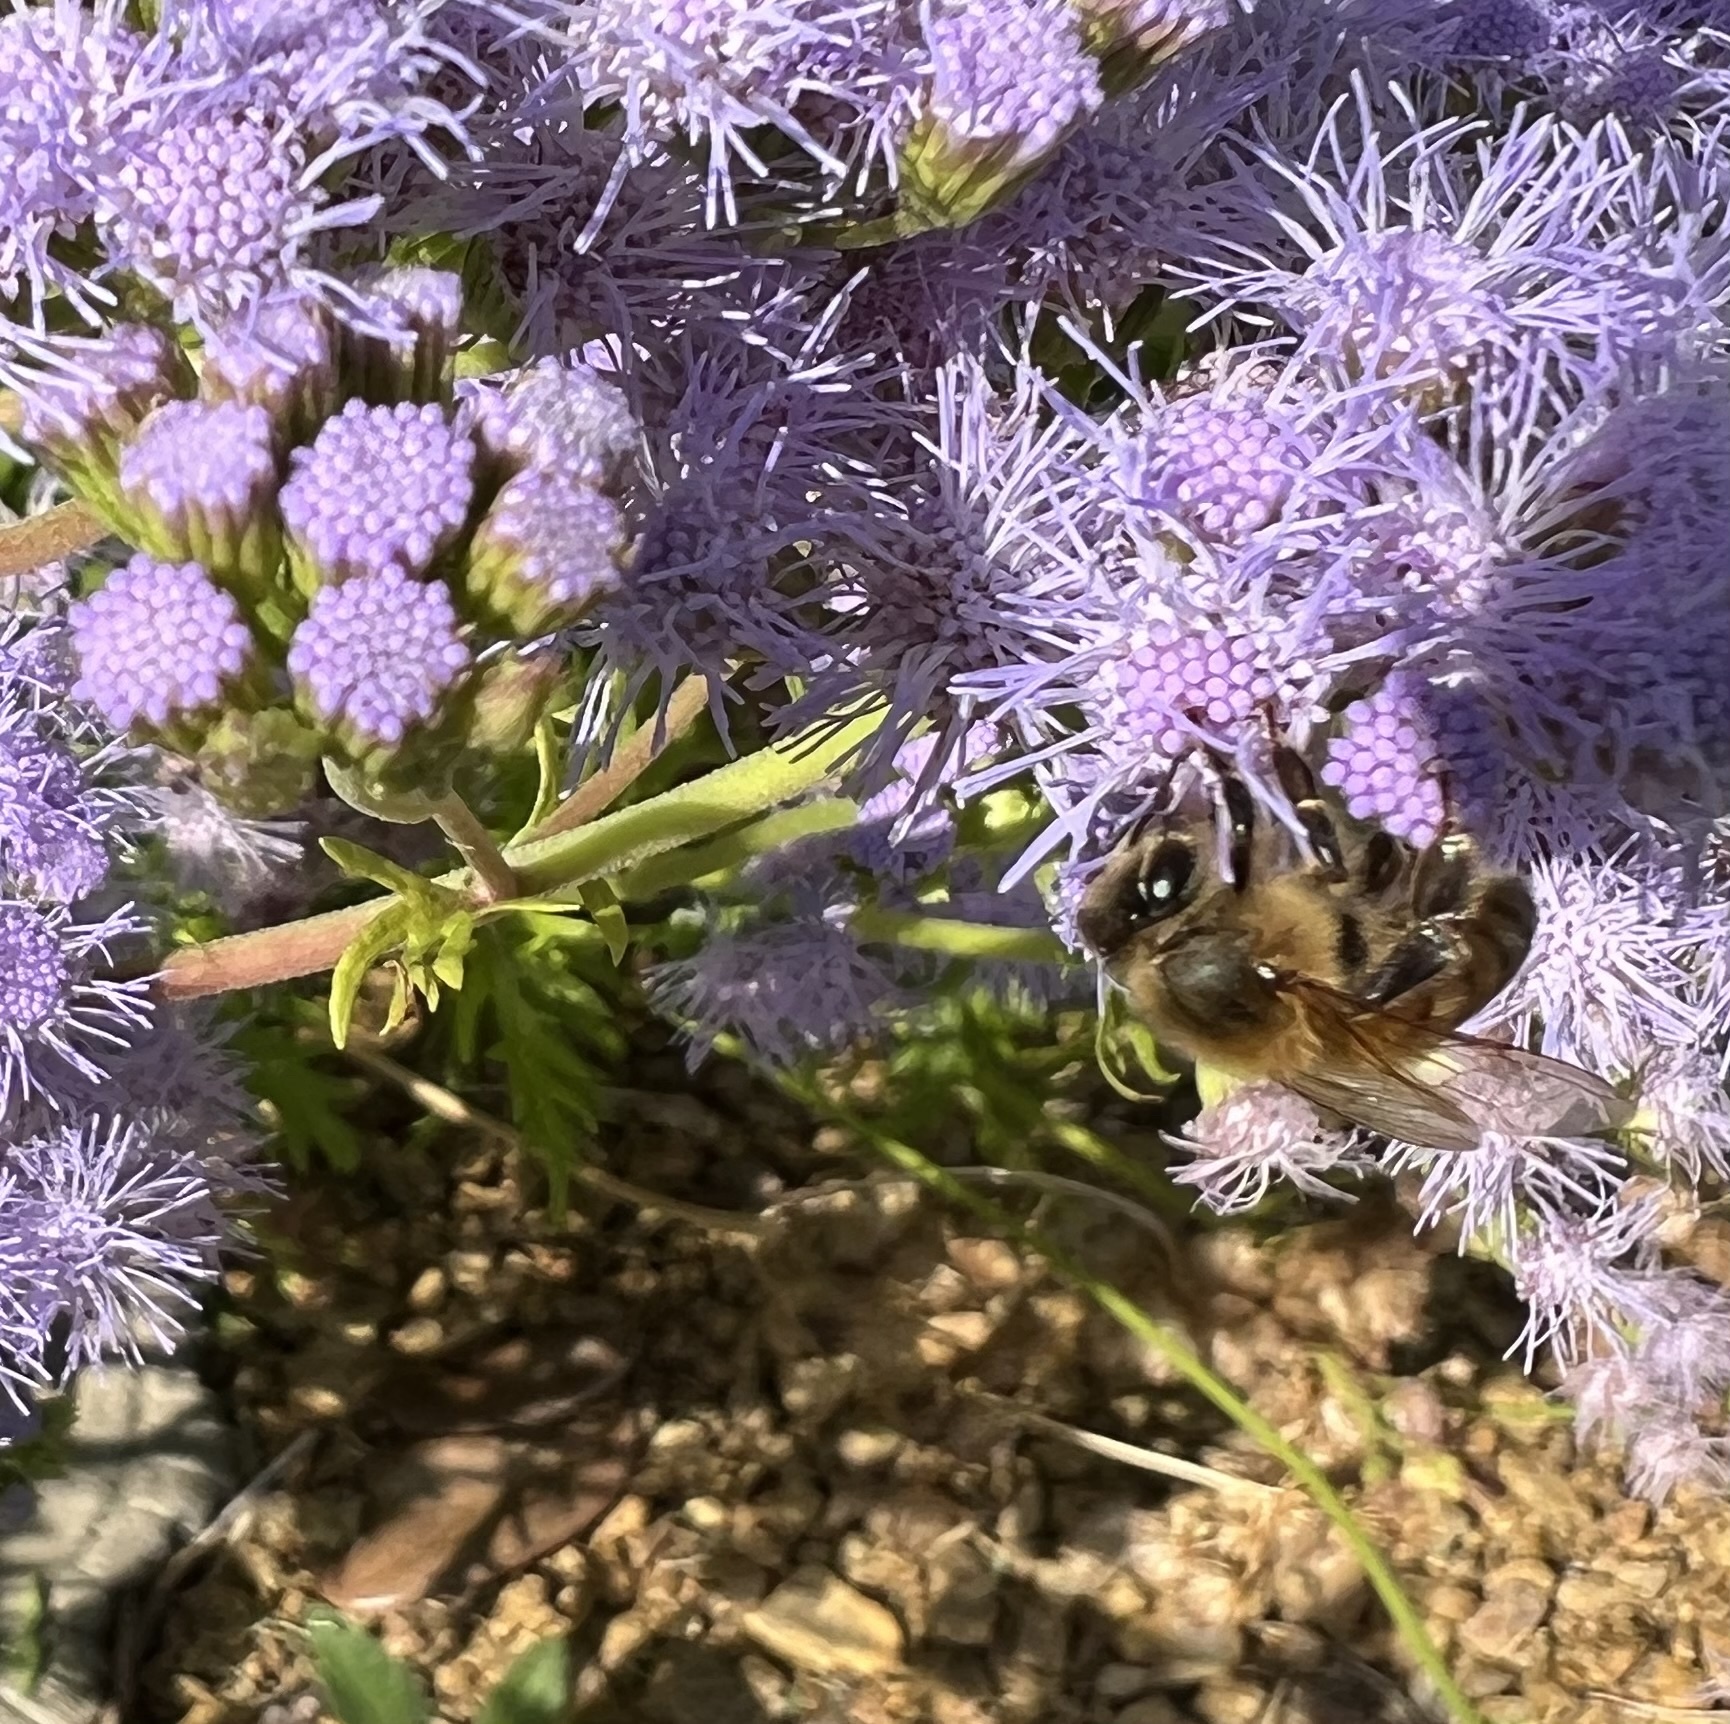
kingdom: Animalia
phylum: Arthropoda
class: Insecta
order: Hymenoptera
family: Apidae
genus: Apis
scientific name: Apis mellifera
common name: Honey bee
